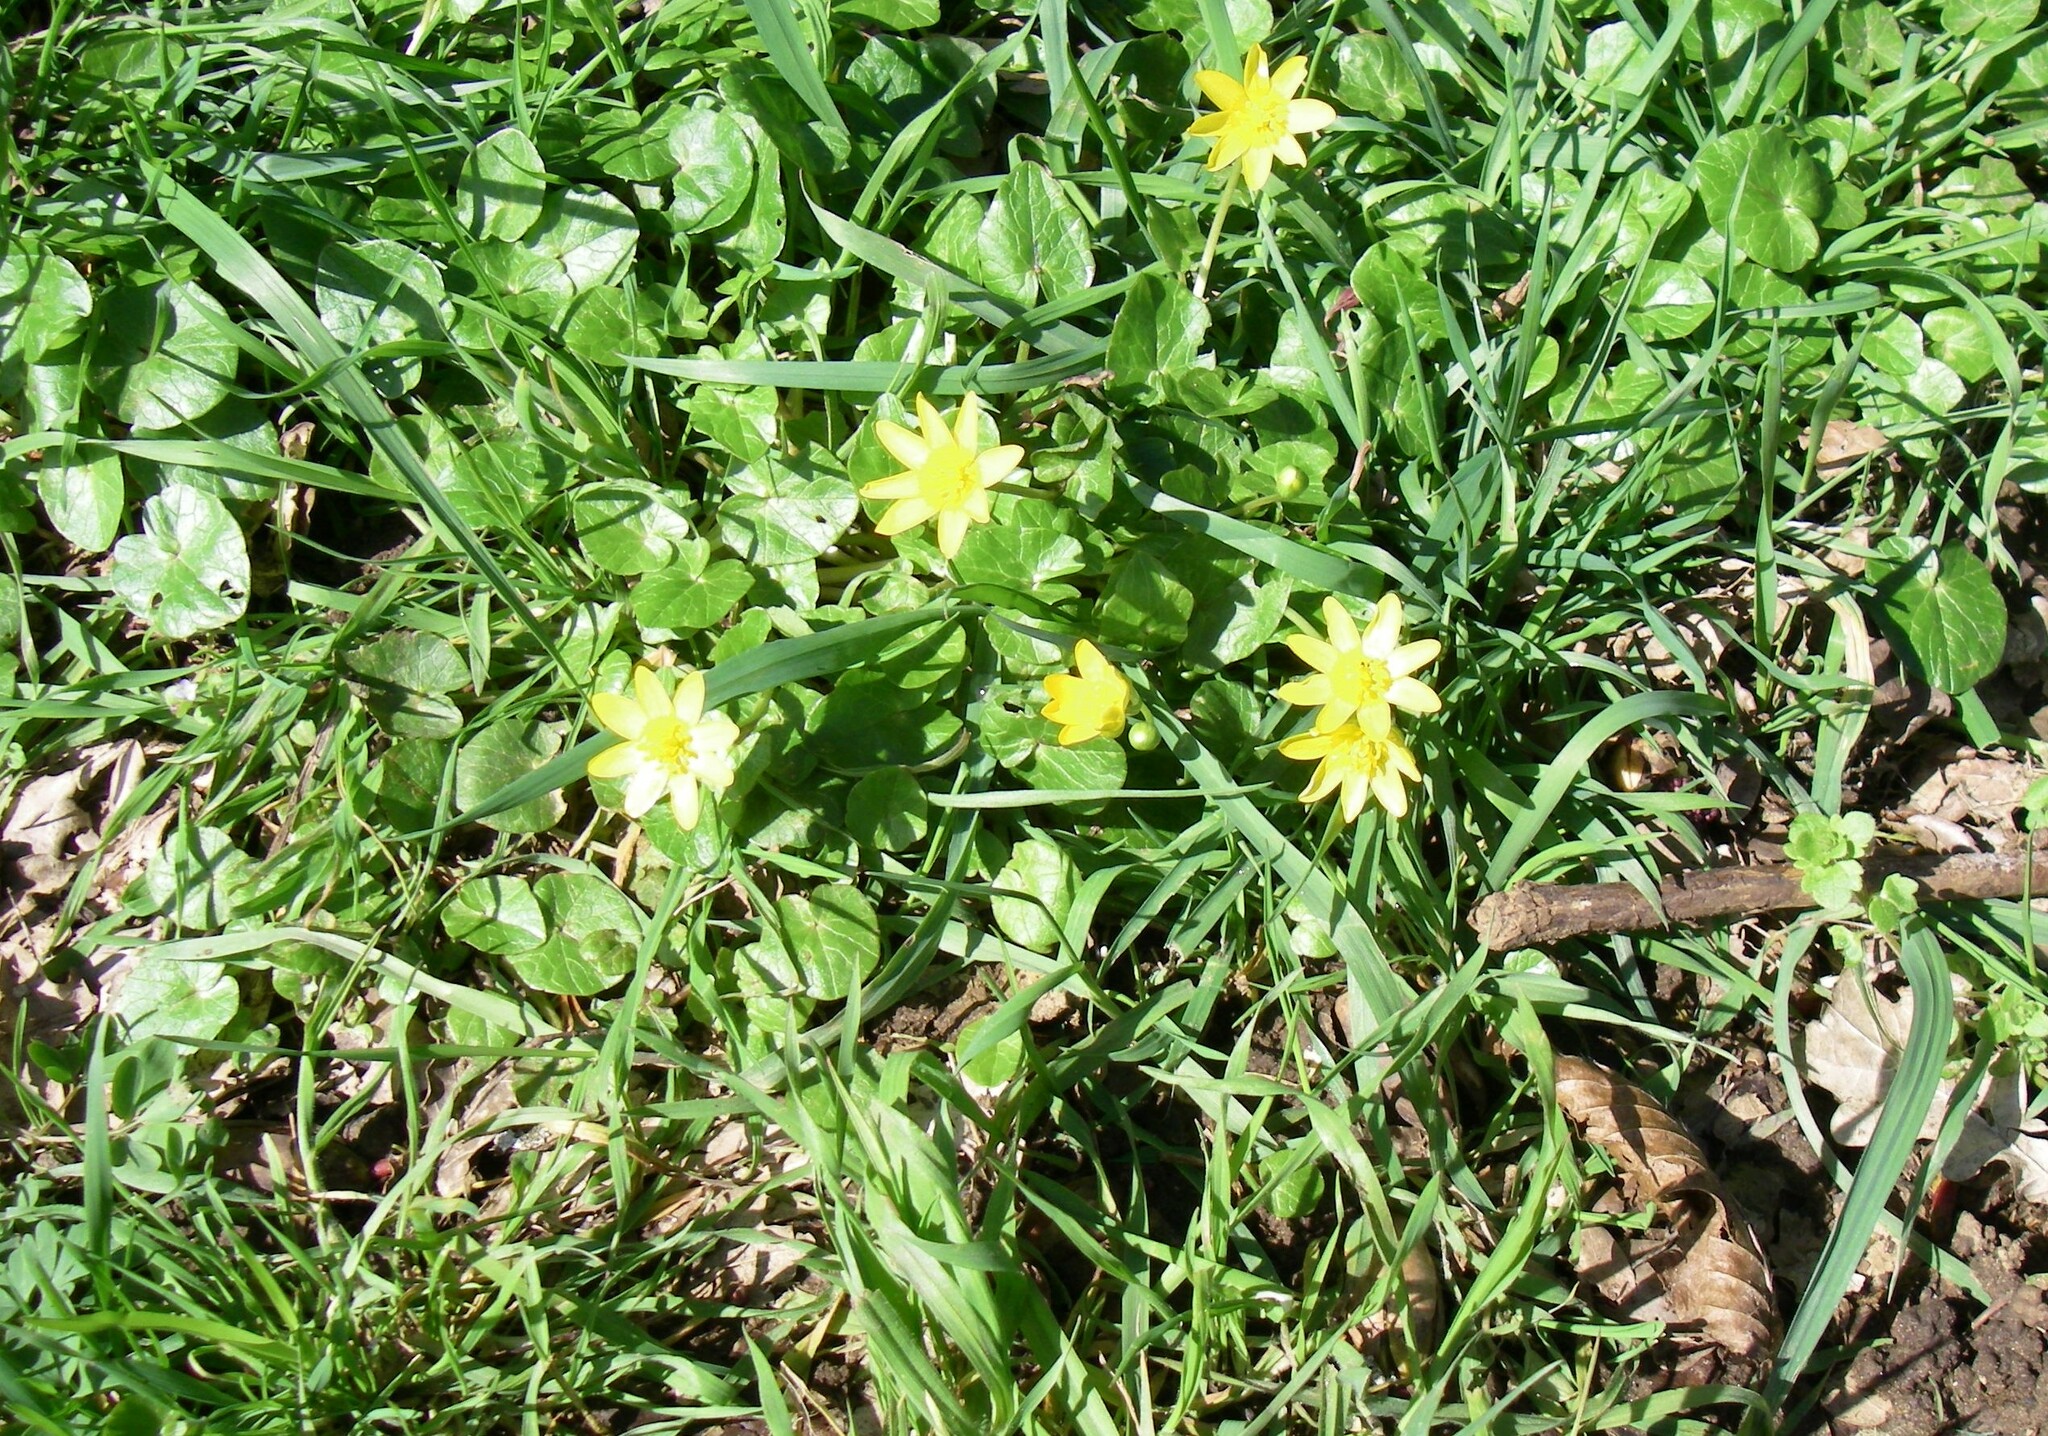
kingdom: Plantae
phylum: Tracheophyta
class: Magnoliopsida
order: Ranunculales
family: Ranunculaceae
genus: Ficaria
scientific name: Ficaria verna
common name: Lesser celandine
